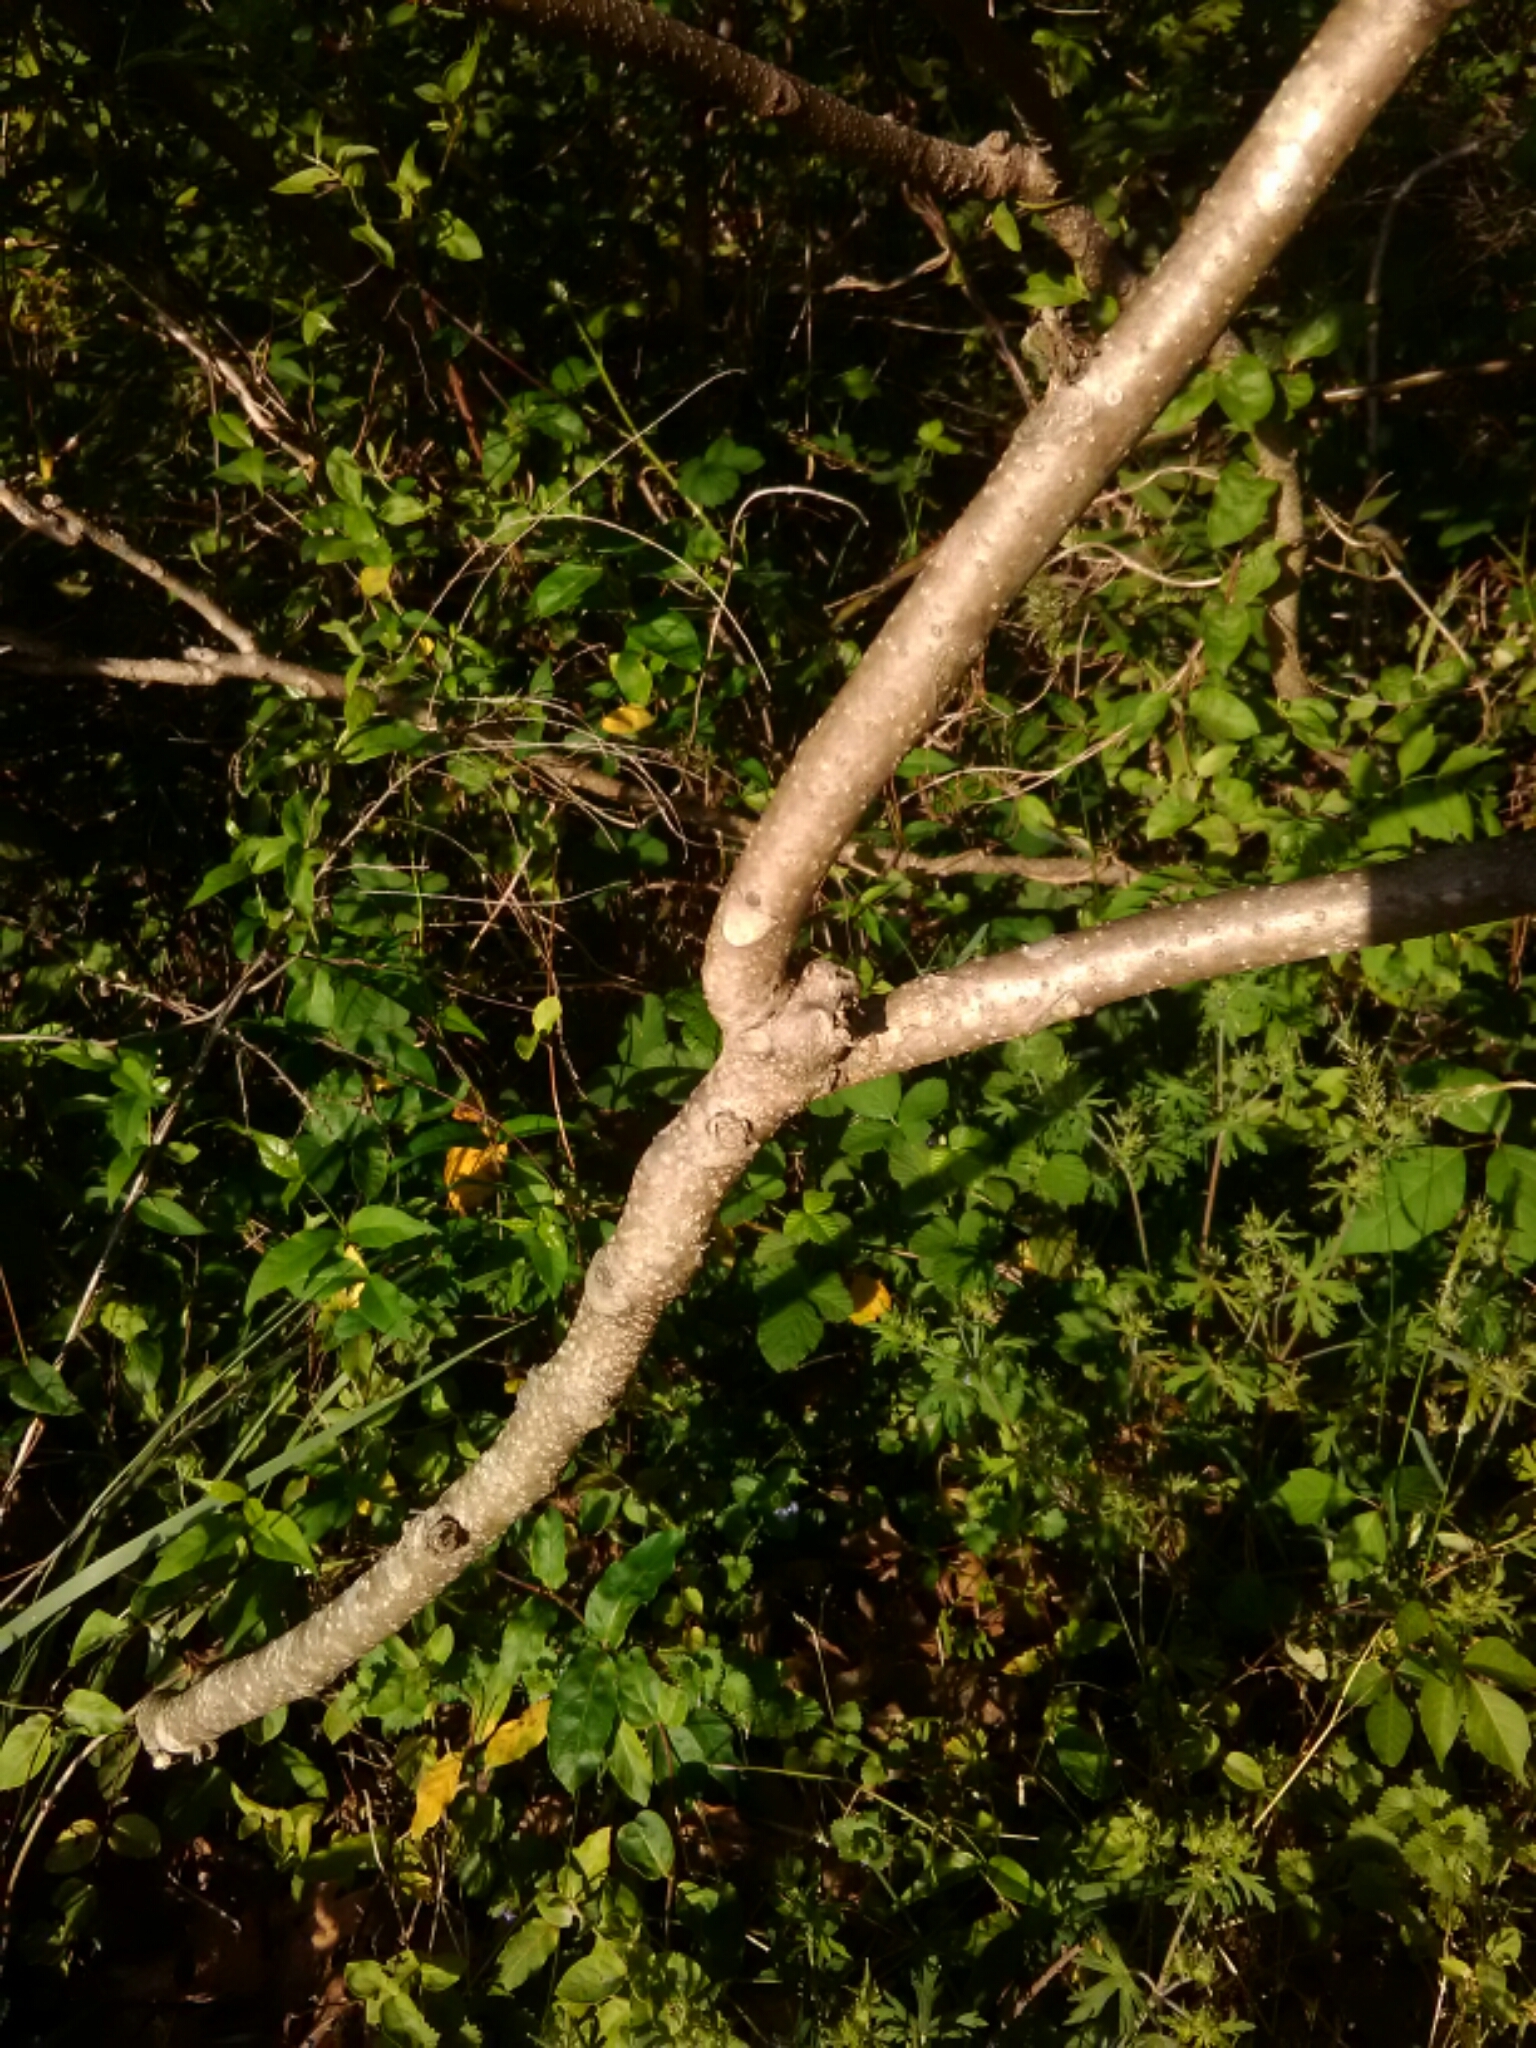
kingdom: Plantae
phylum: Tracheophyta
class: Magnoliopsida
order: Sapindales
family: Simaroubaceae
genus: Ailanthus
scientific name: Ailanthus altissima
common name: Tree-of-heaven
